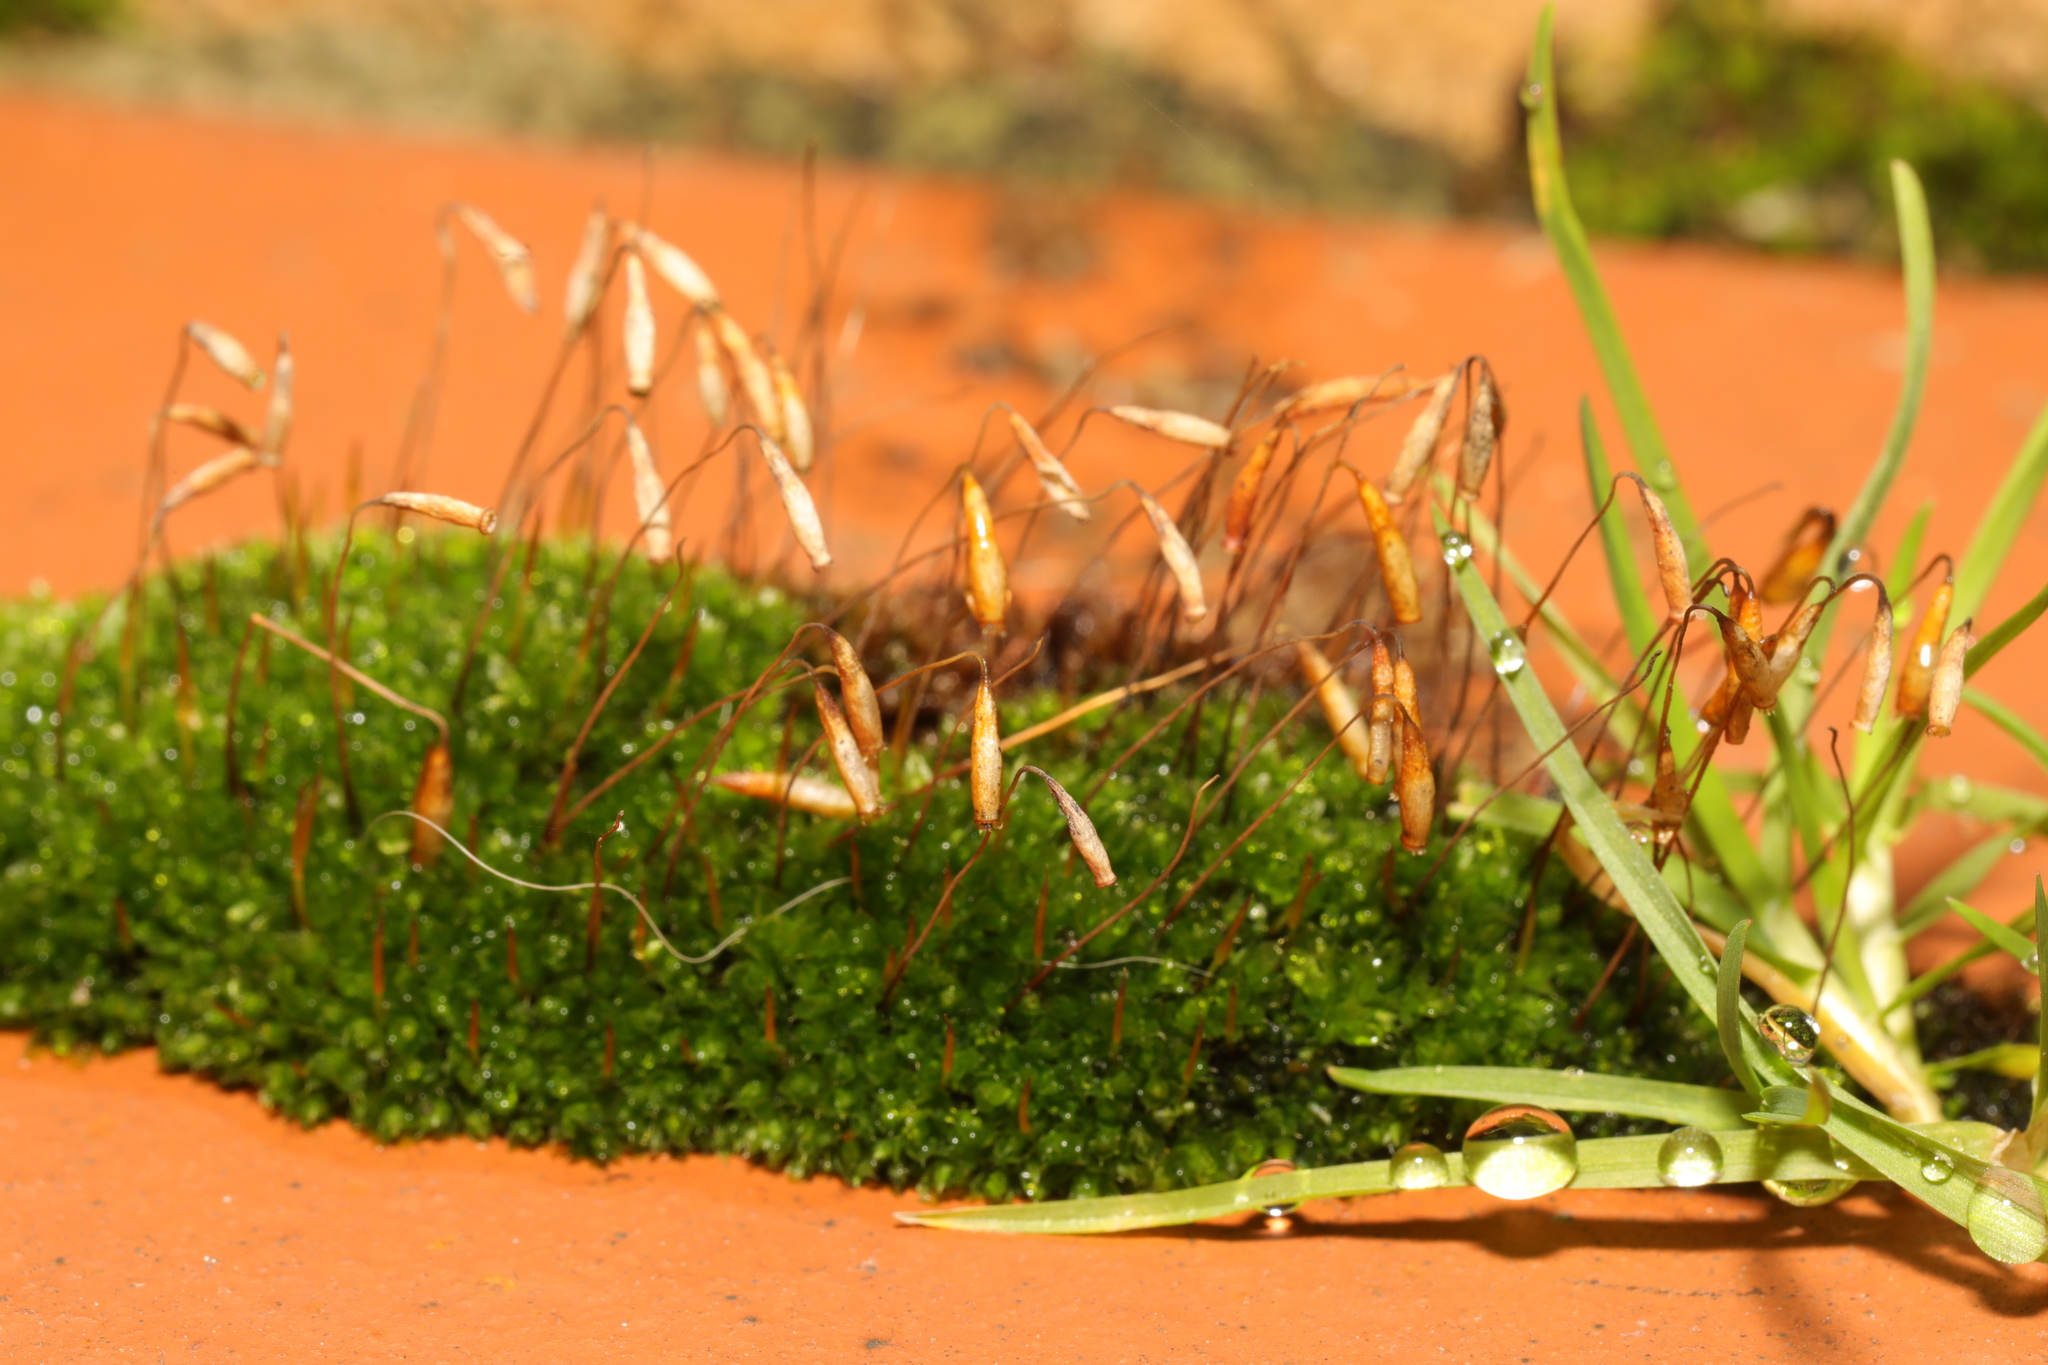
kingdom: Plantae
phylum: Bryophyta
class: Bryopsida
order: Bryales
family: Bryaceae
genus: Rosulabryum
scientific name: Rosulabryum capillare
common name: Capillary thread-moss
